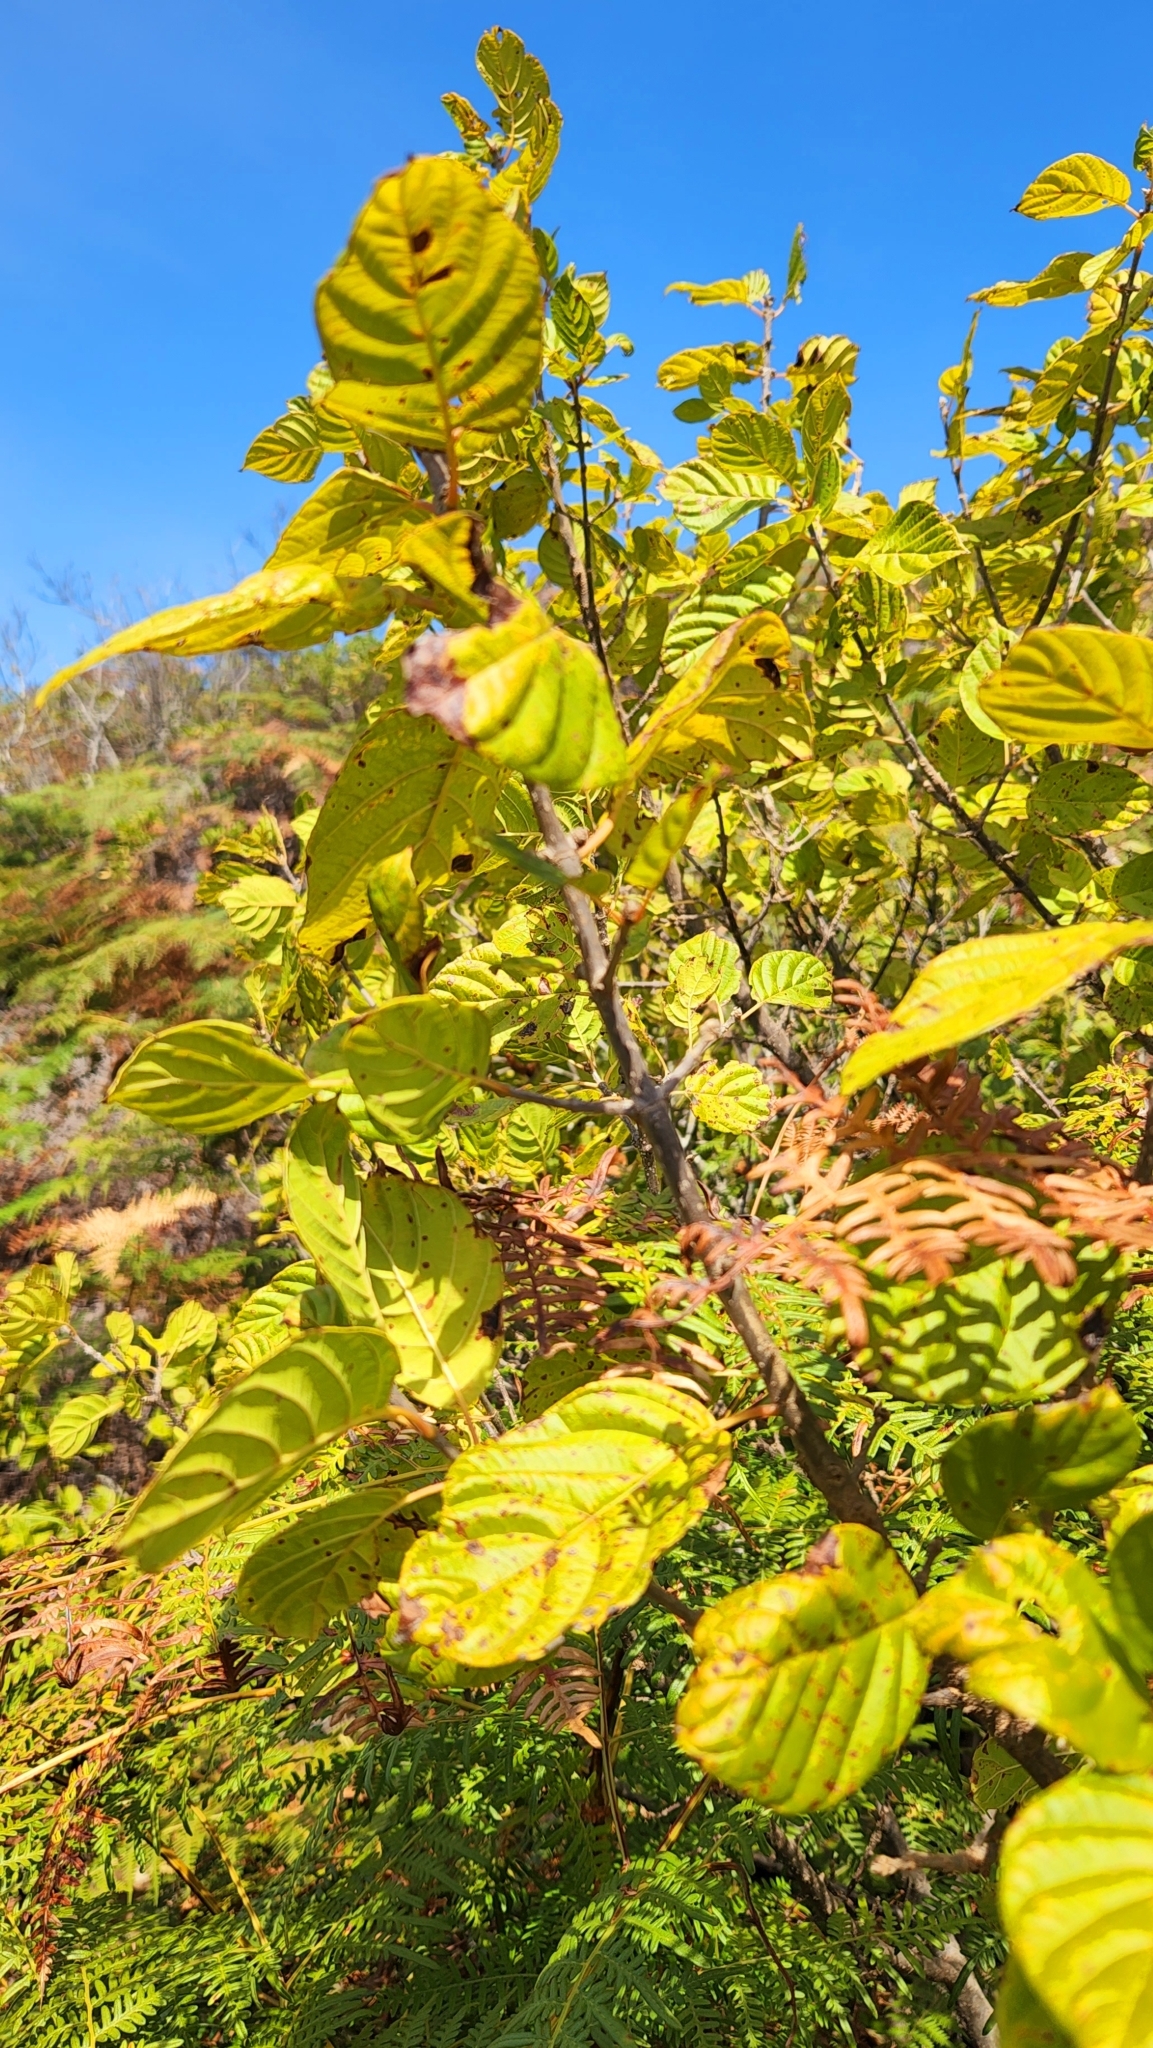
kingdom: Plantae
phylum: Tracheophyta
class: Magnoliopsida
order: Gentianales
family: Rubiaceae
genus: Guettarda
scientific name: Guettarda insularis
